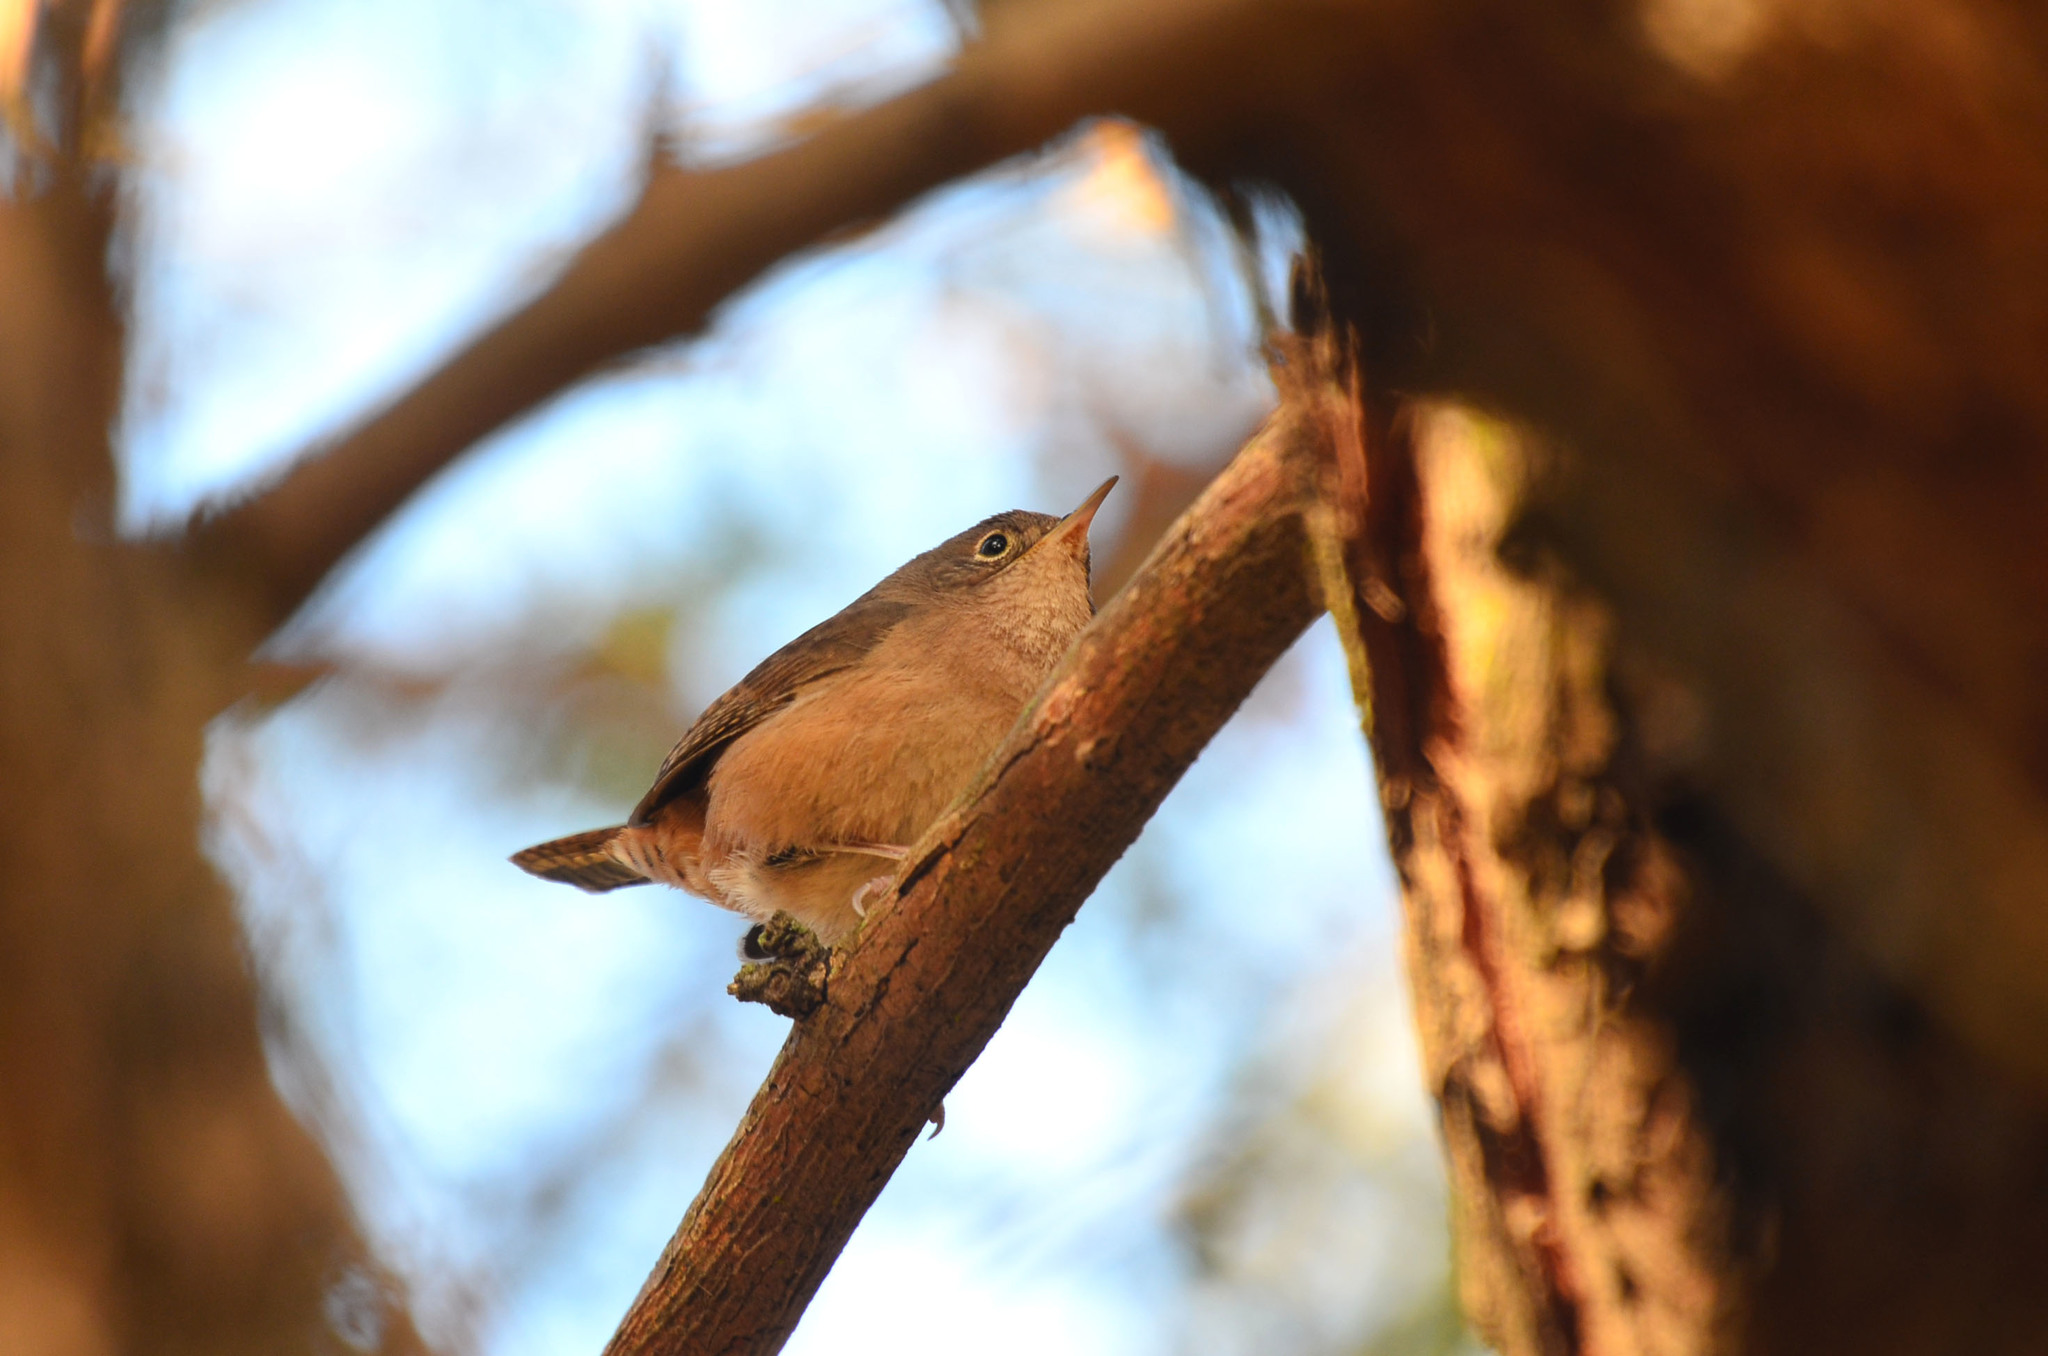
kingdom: Animalia
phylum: Chordata
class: Aves
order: Passeriformes
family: Troglodytidae
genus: Troglodytes
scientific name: Troglodytes aedon
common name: House wren
